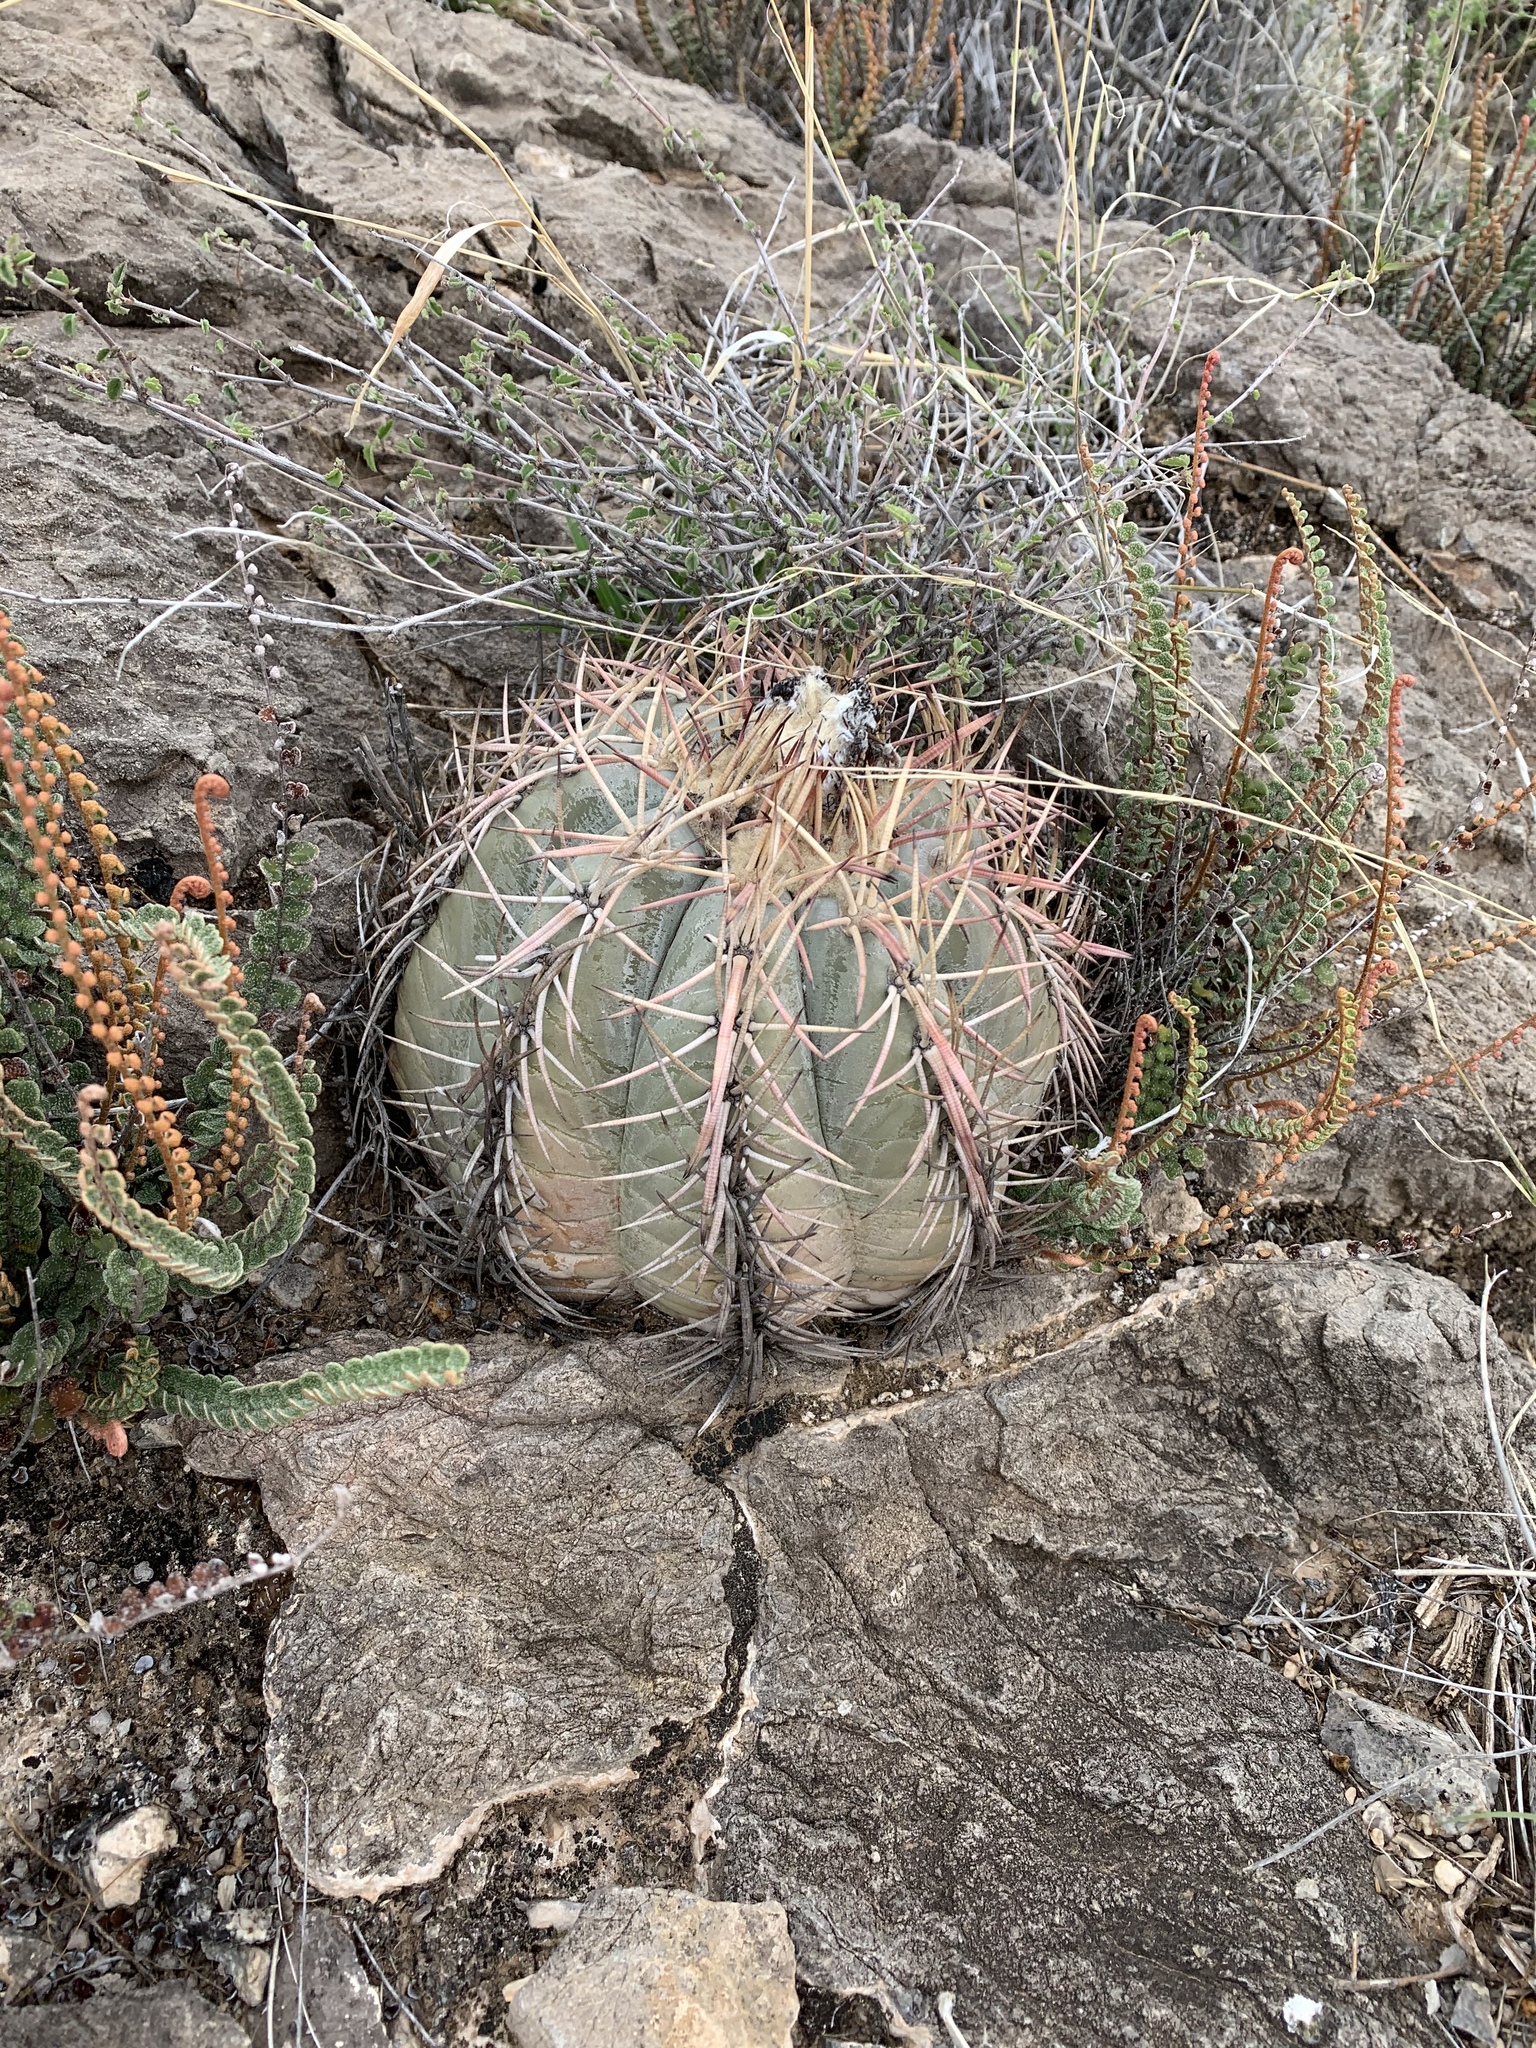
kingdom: Plantae
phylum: Tracheophyta
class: Magnoliopsida
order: Caryophyllales
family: Cactaceae
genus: Echinocactus
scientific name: Echinocactus horizonthalonius
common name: Devilshead
